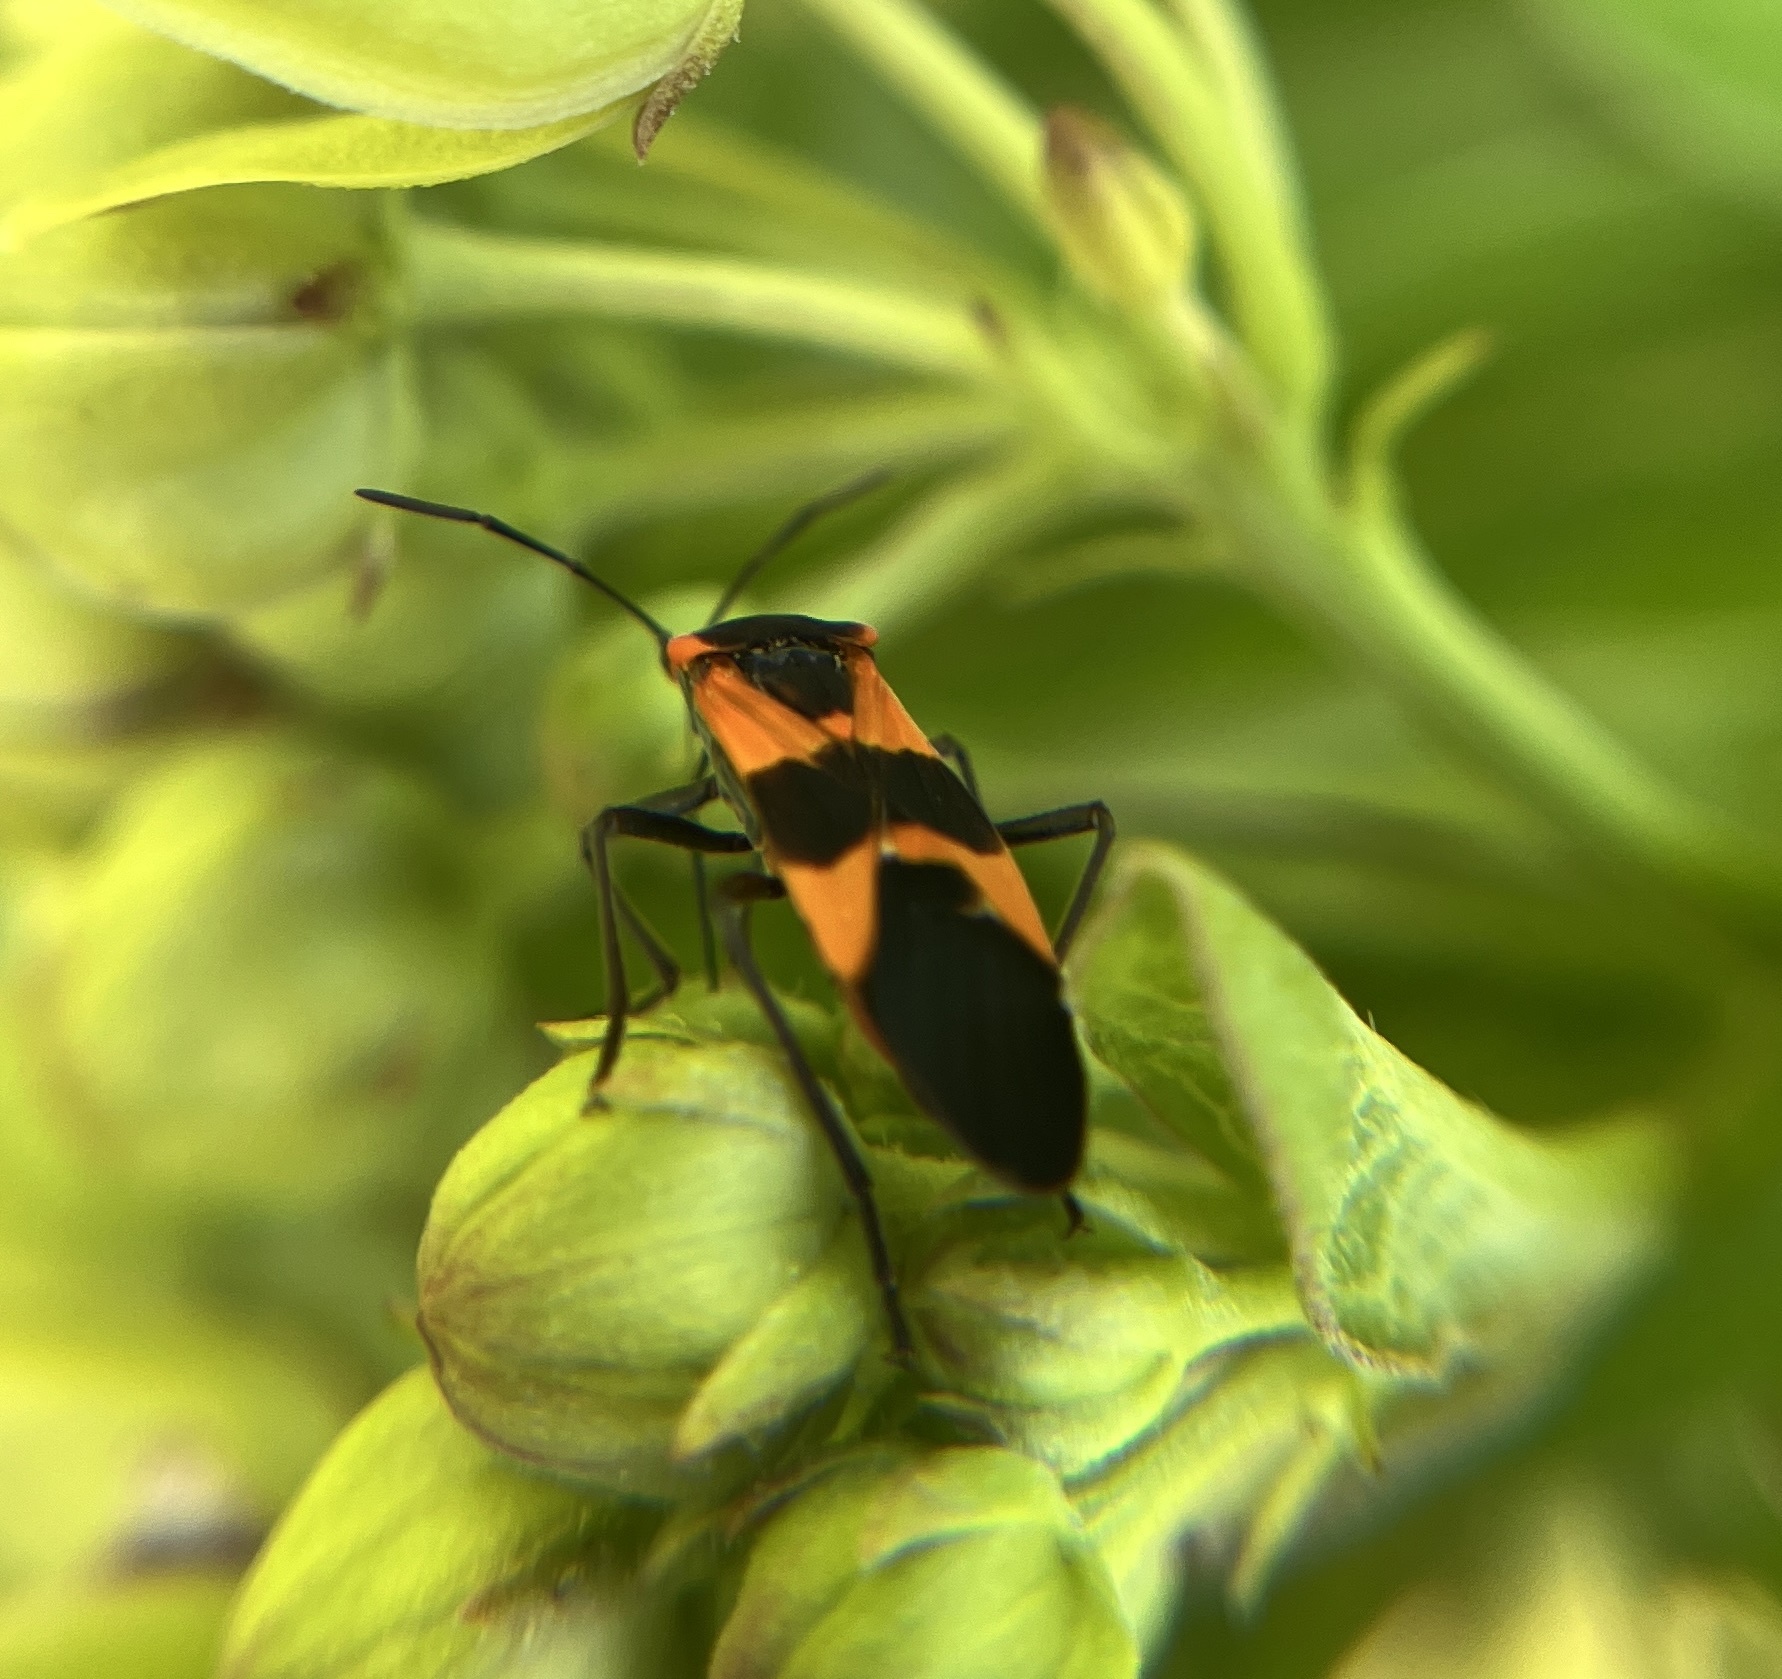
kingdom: Animalia
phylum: Arthropoda
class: Insecta
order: Hemiptera
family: Lygaeidae
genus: Oncopeltus
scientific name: Oncopeltus fasciatus
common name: Large milkweed bug
